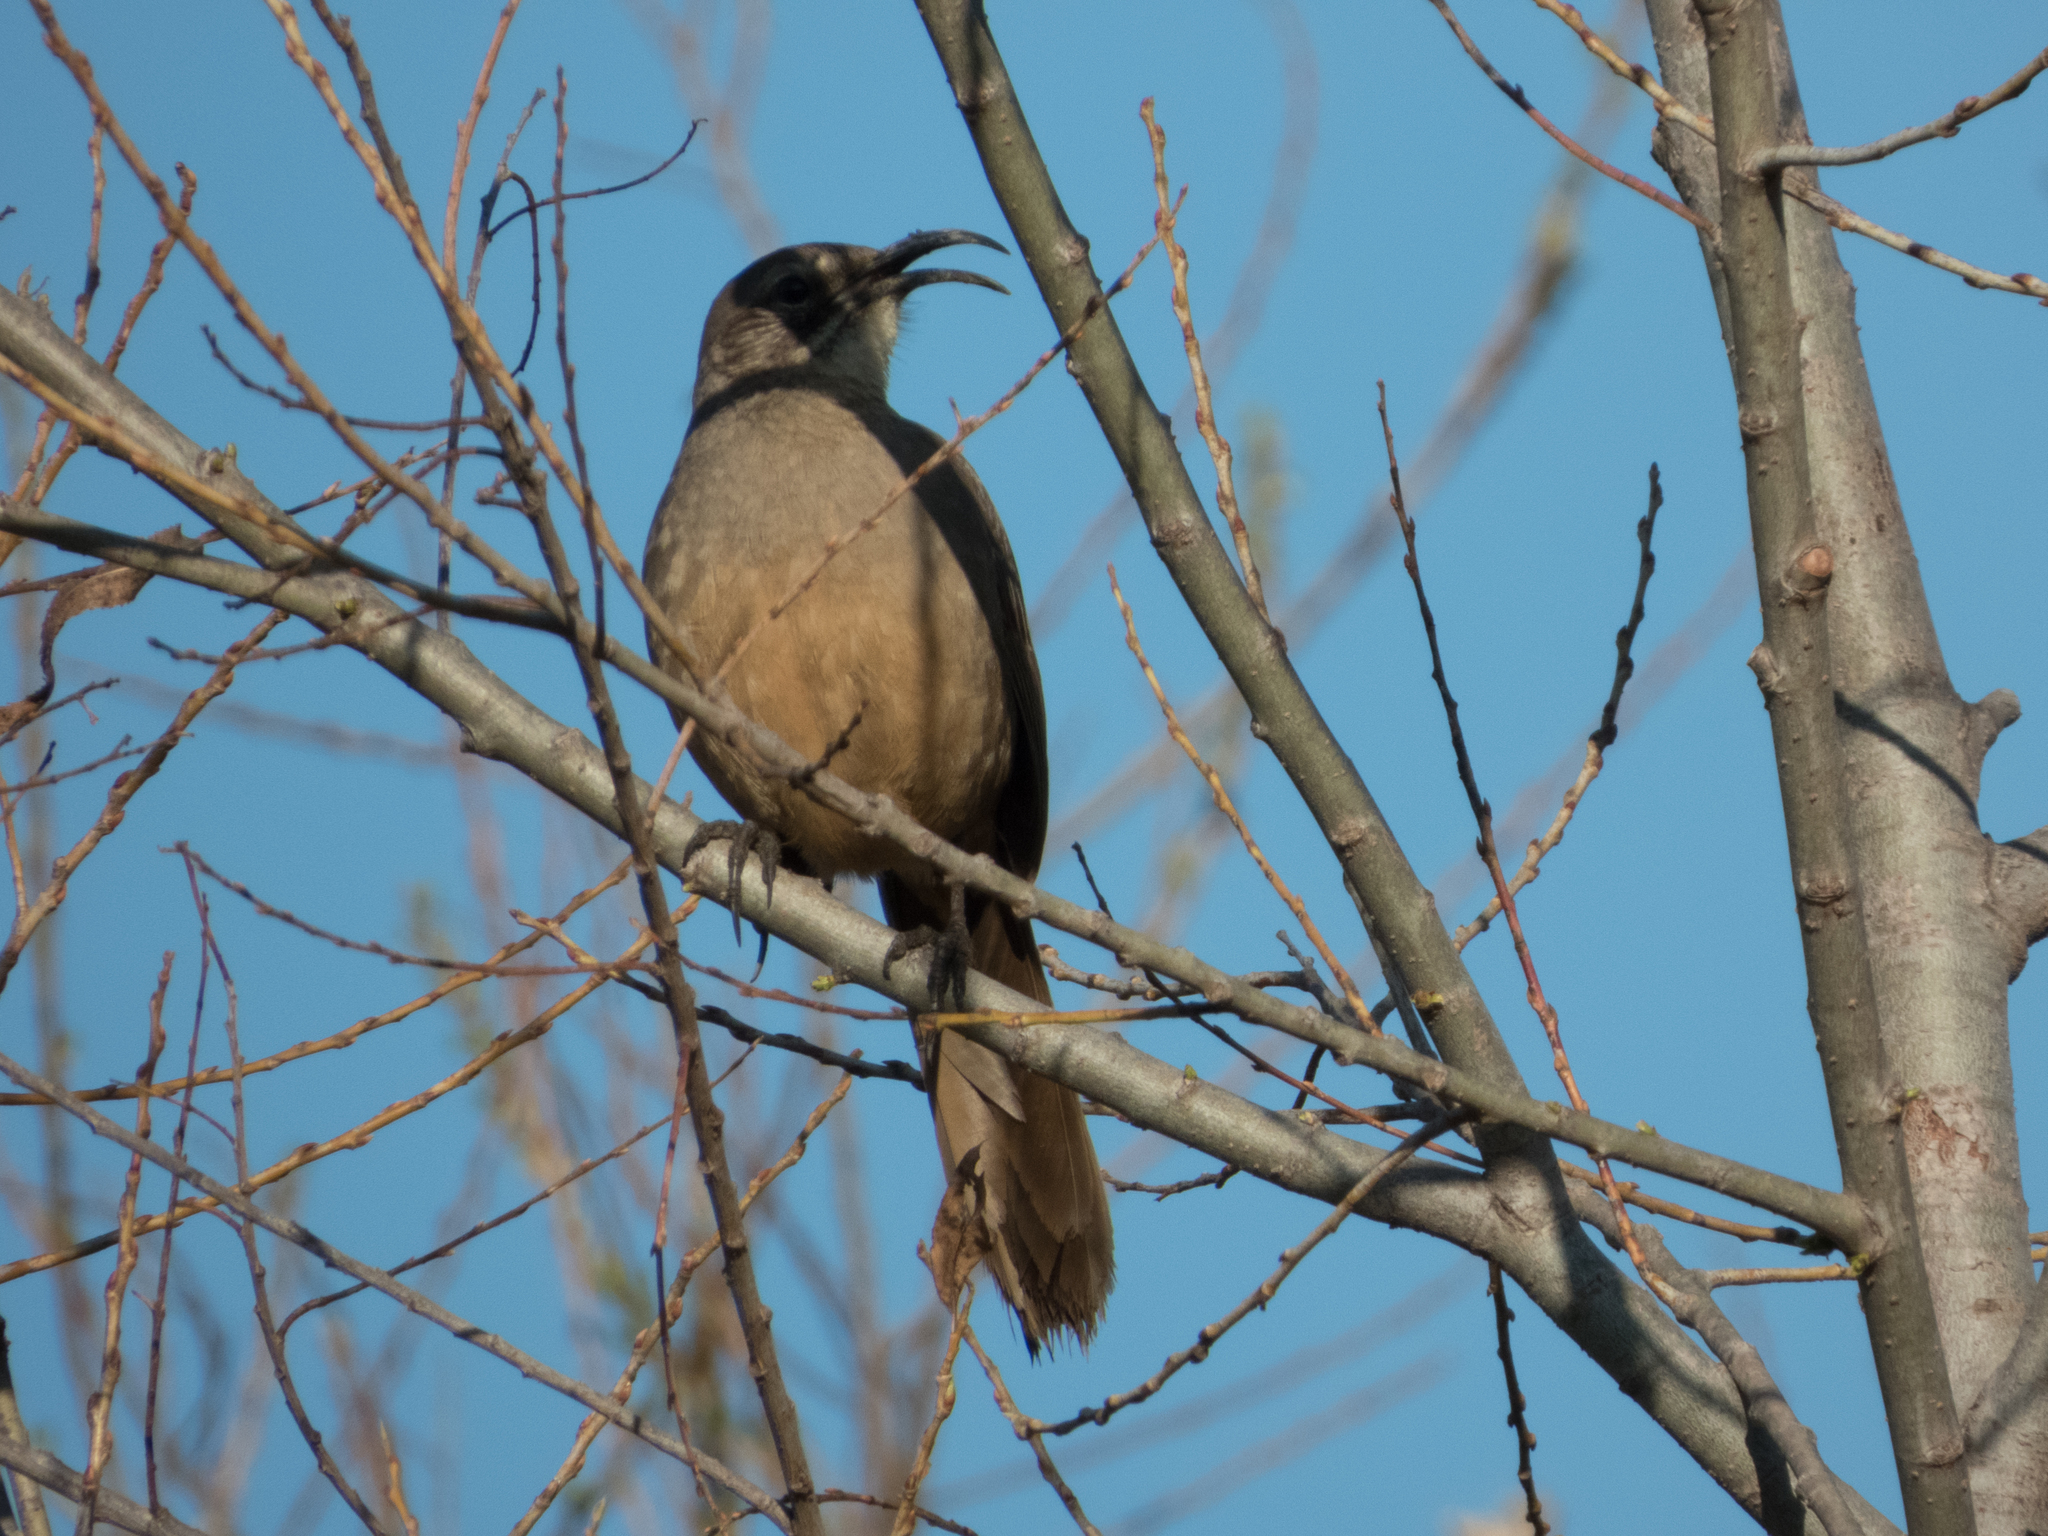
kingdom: Animalia
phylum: Chordata
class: Aves
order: Passeriformes
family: Mimidae
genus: Toxostoma
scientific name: Toxostoma redivivum
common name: California thrasher
